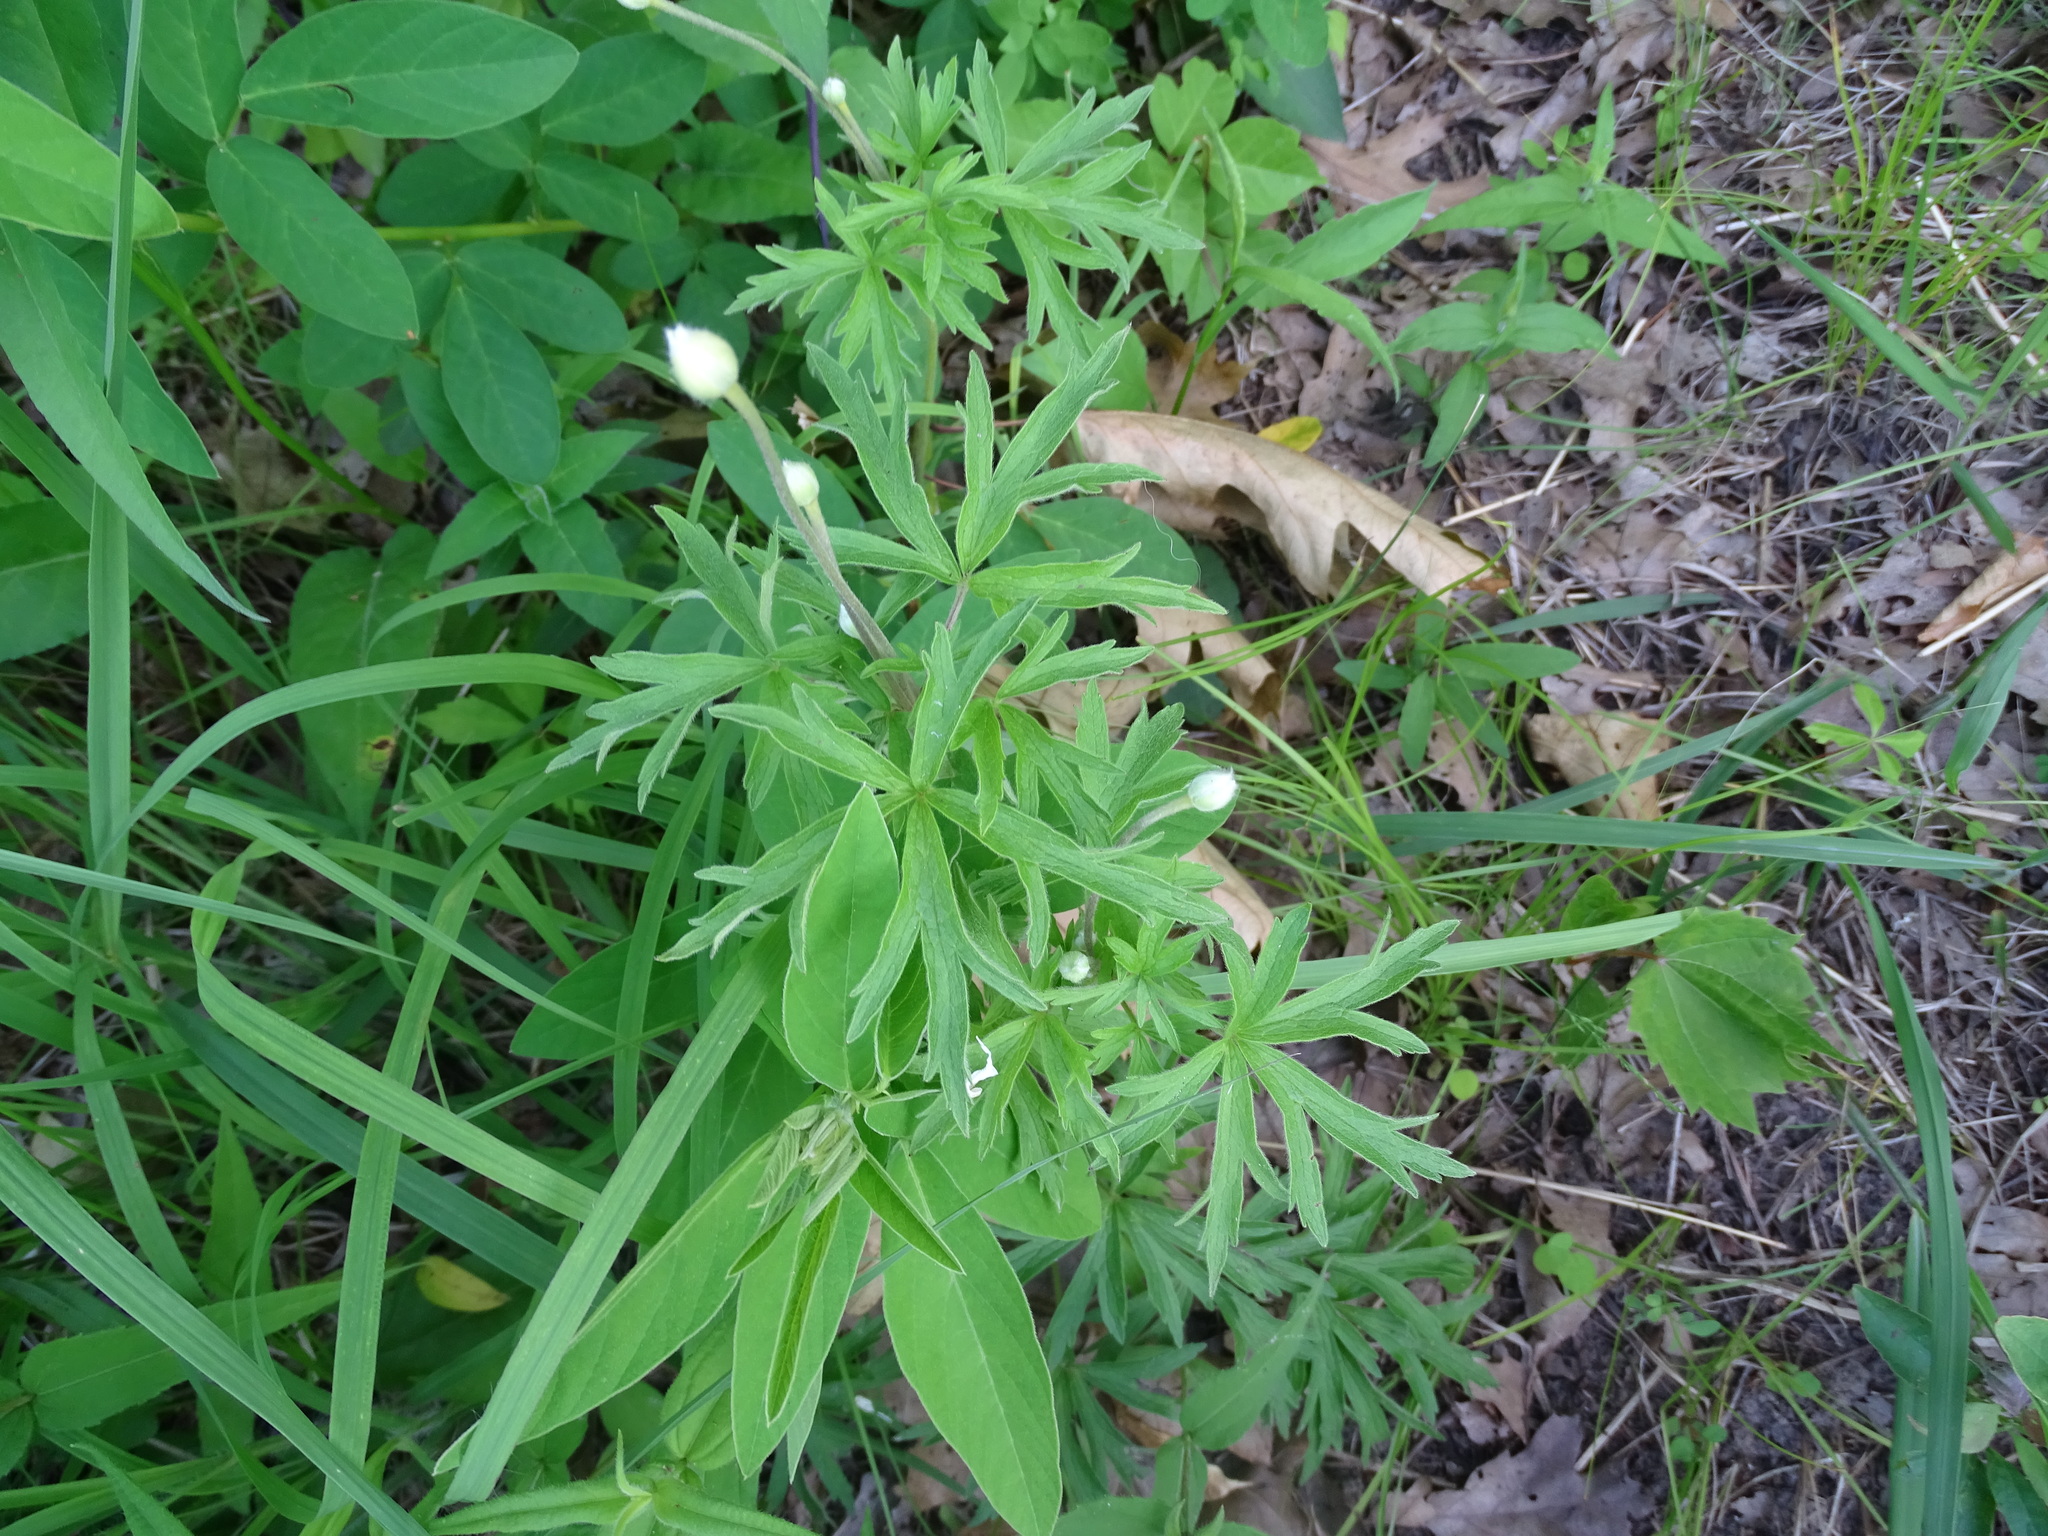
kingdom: Plantae
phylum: Tracheophyta
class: Magnoliopsida
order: Ranunculales
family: Ranunculaceae
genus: Anemone
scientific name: Anemone cylindrica
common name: Candle anemone
